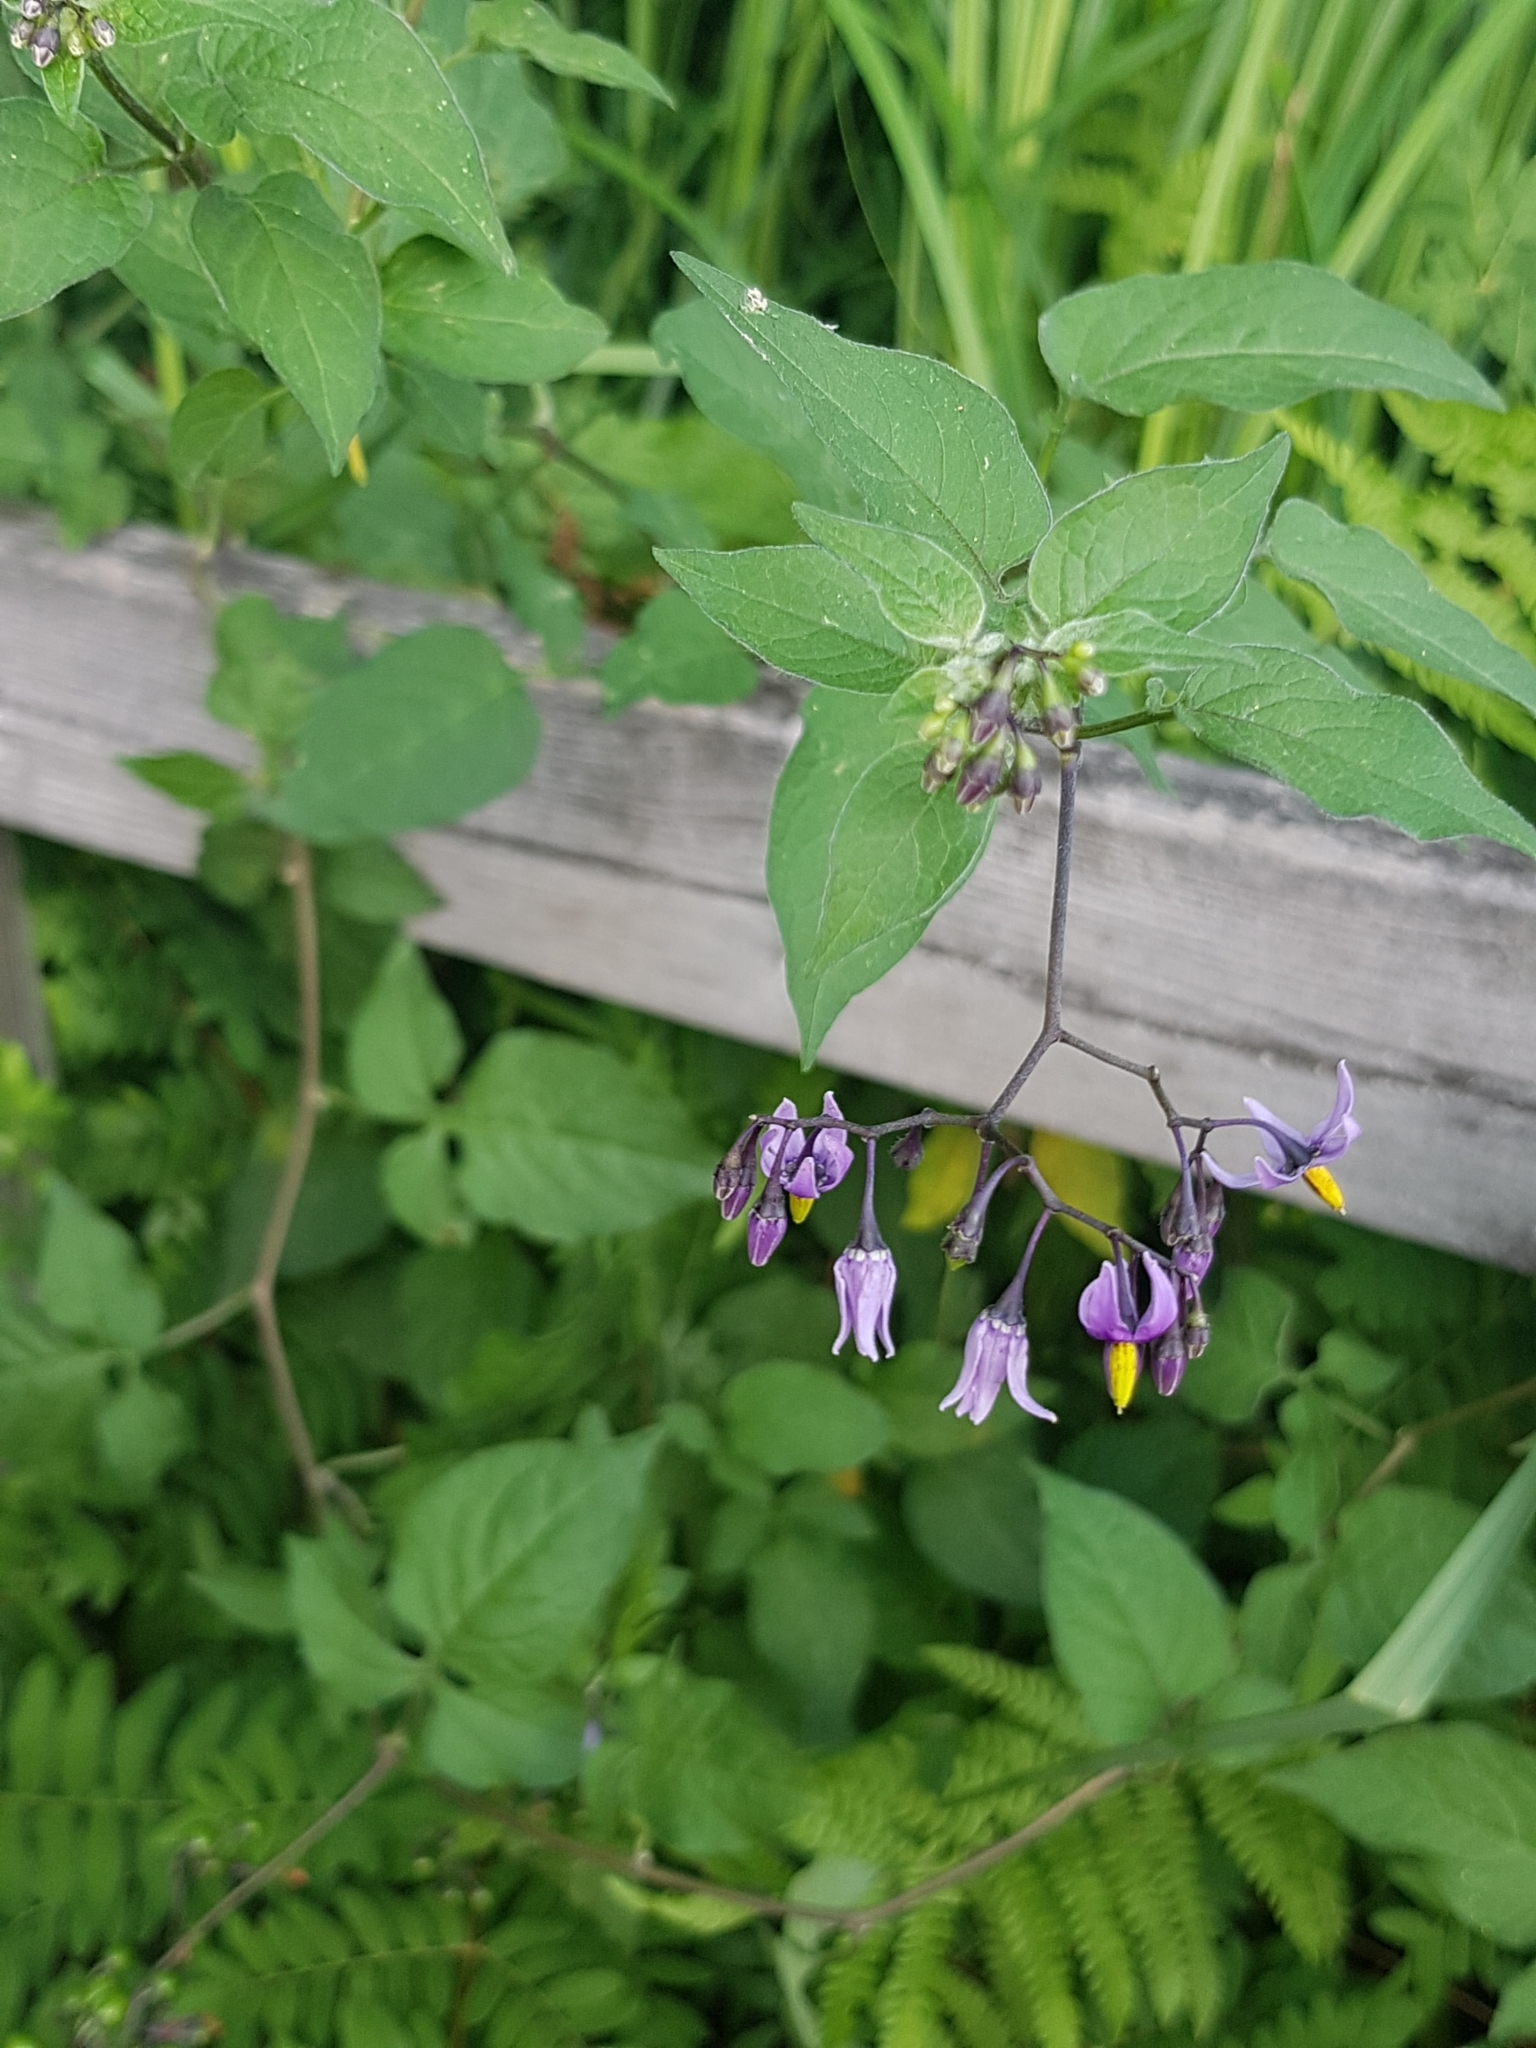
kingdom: Plantae
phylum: Tracheophyta
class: Magnoliopsida
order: Solanales
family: Solanaceae
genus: Solanum
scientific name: Solanum dulcamara
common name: Climbing nightshade
